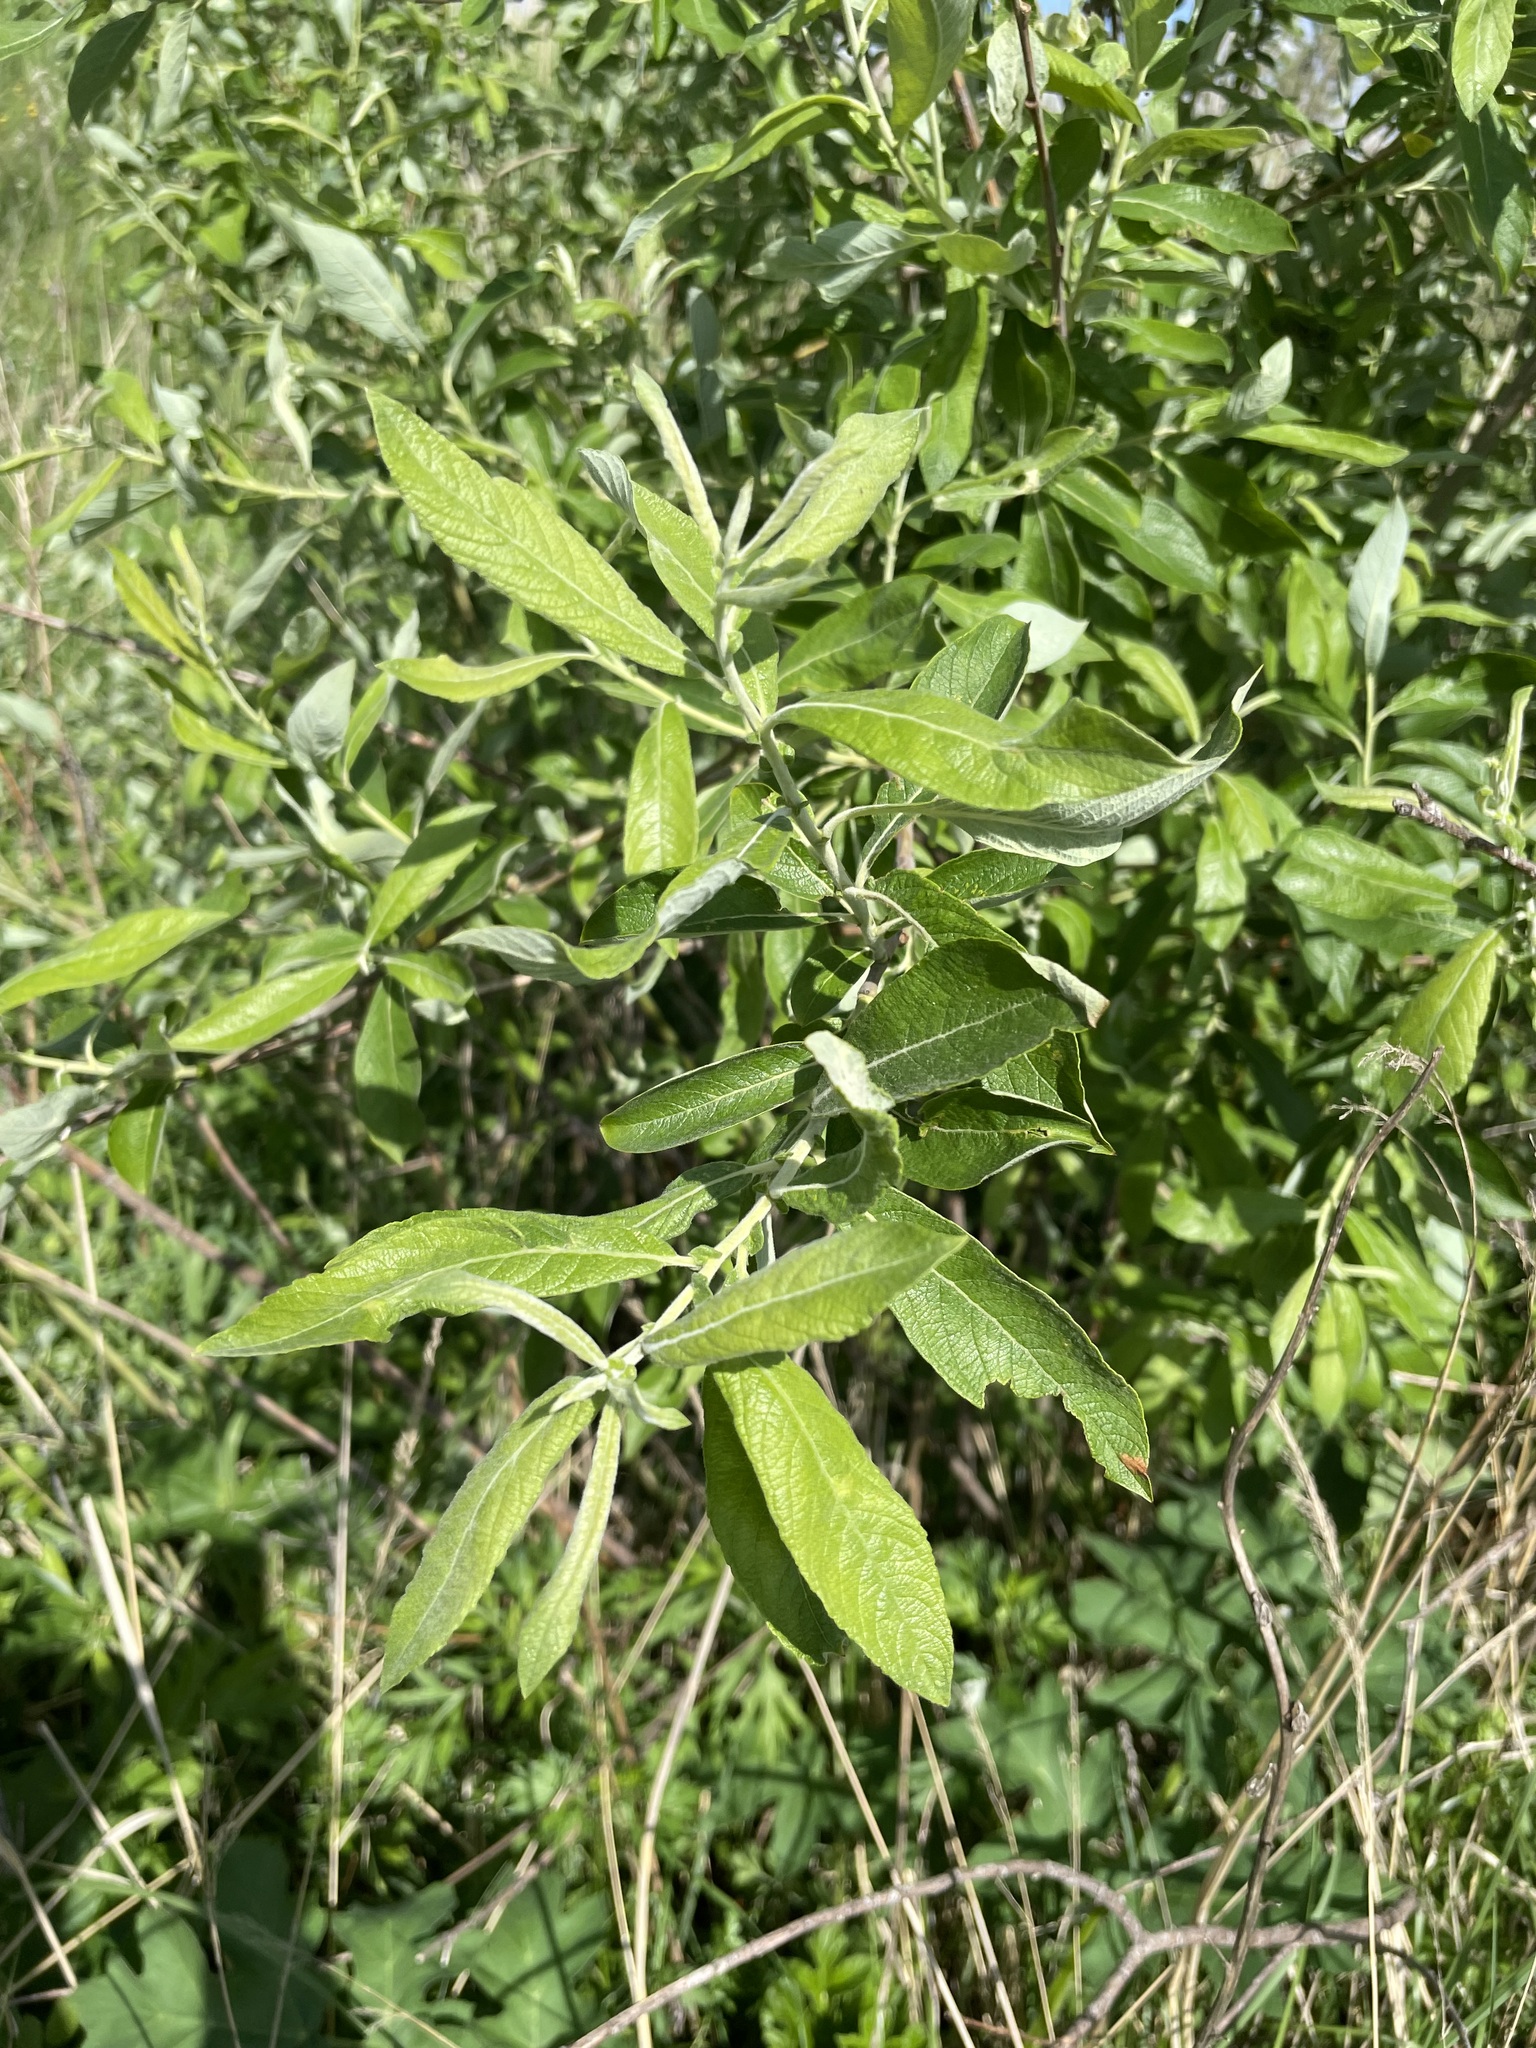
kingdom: Plantae
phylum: Tracheophyta
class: Magnoliopsida
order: Malpighiales
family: Salicaceae
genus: Salix
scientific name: Salix cinerea
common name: Common sallow
